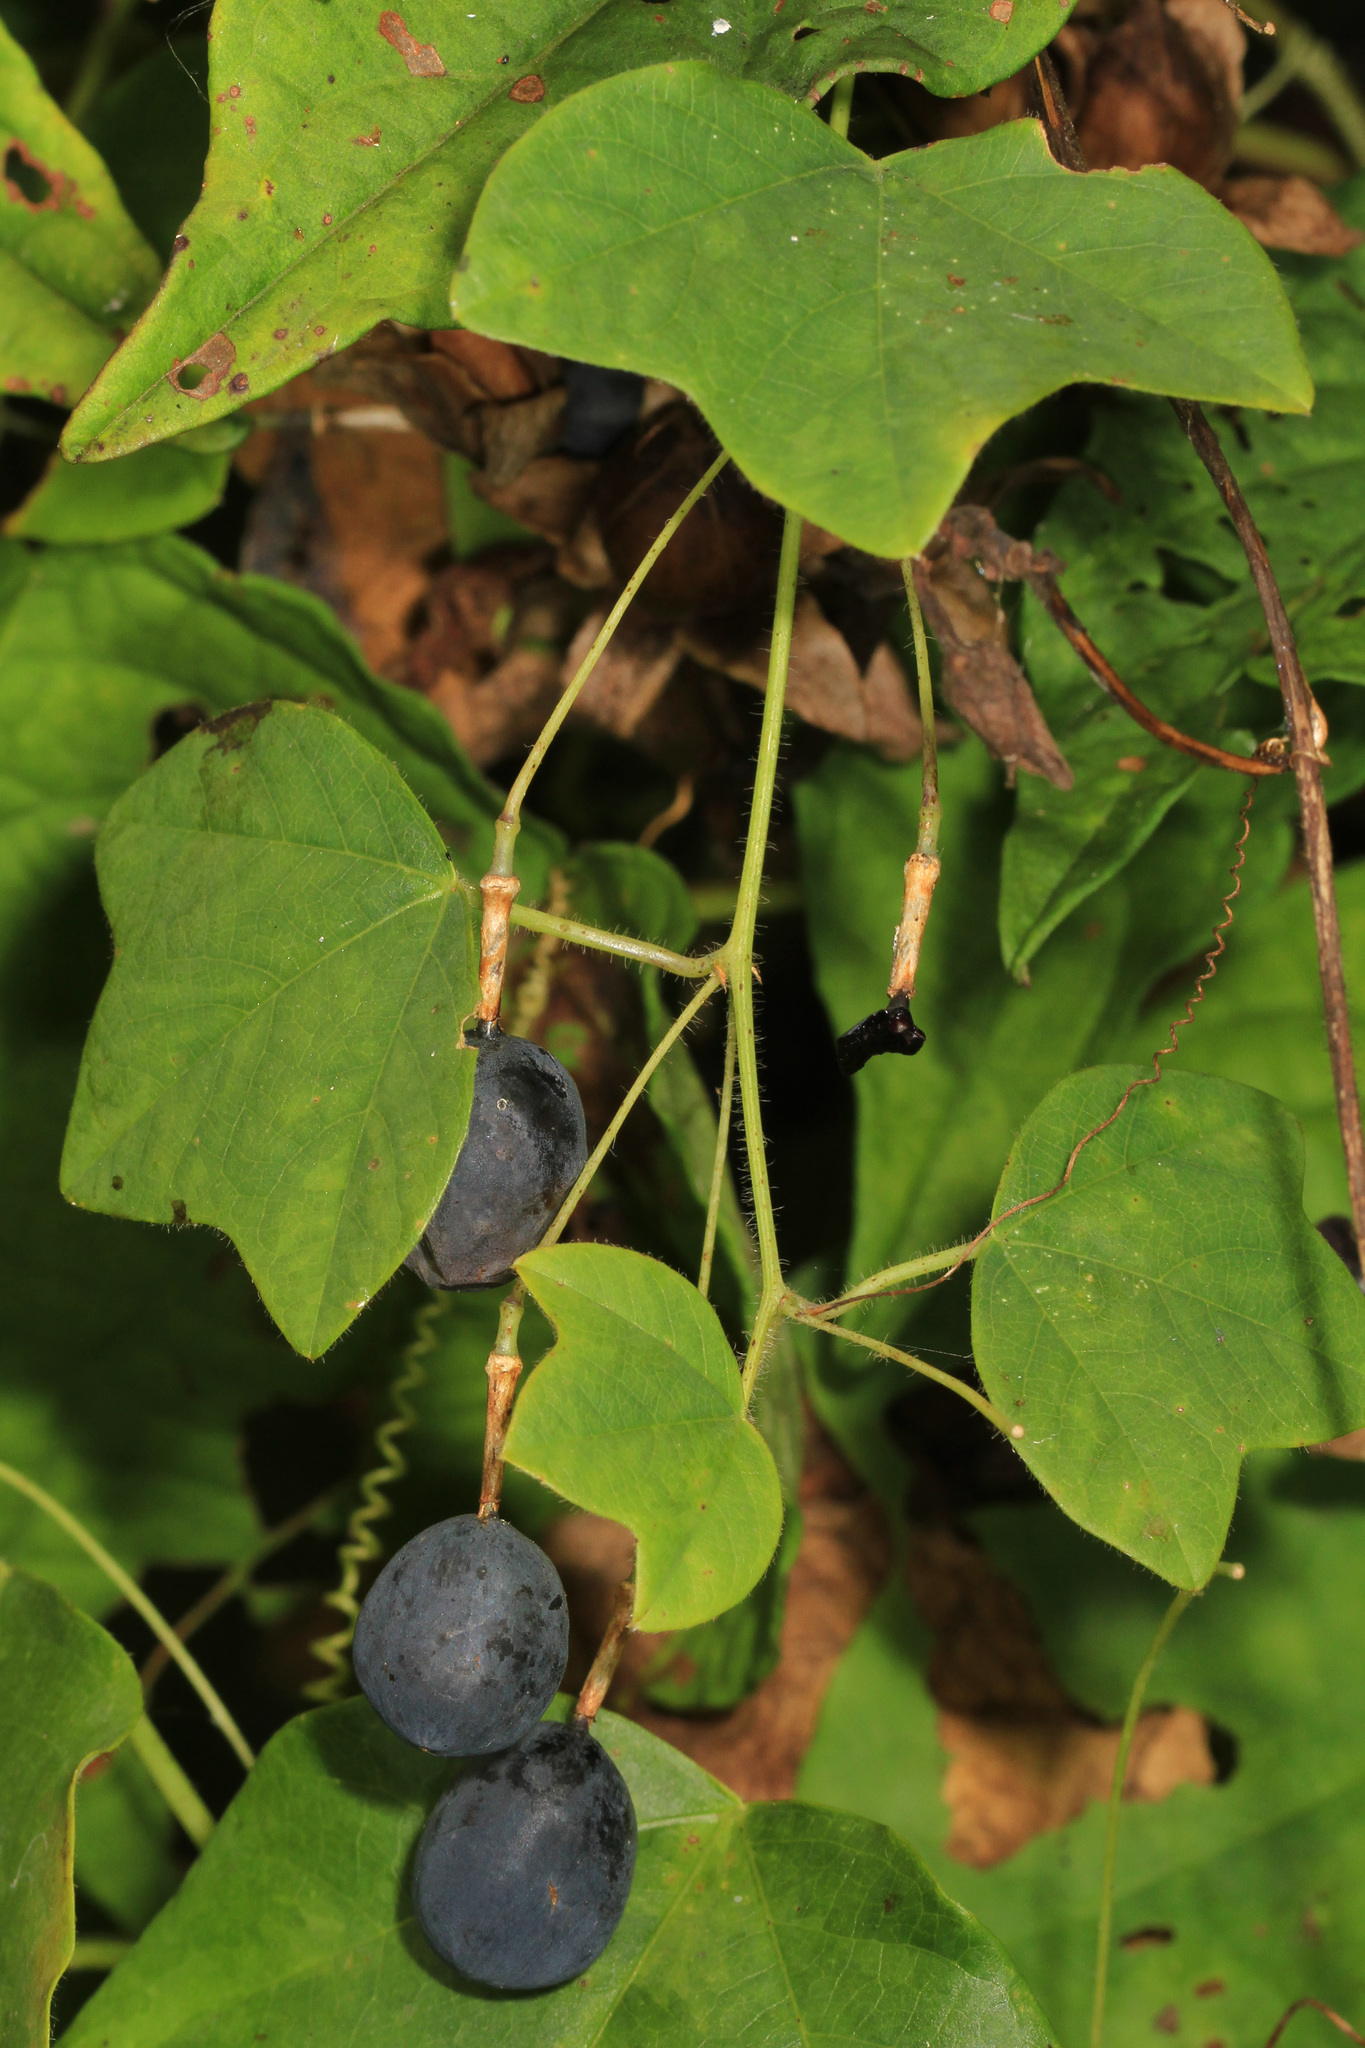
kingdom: Plantae
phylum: Tracheophyta
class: Magnoliopsida
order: Malpighiales
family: Passifloraceae
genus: Passiflora
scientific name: Passiflora lutea
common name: Yellow passionflower
